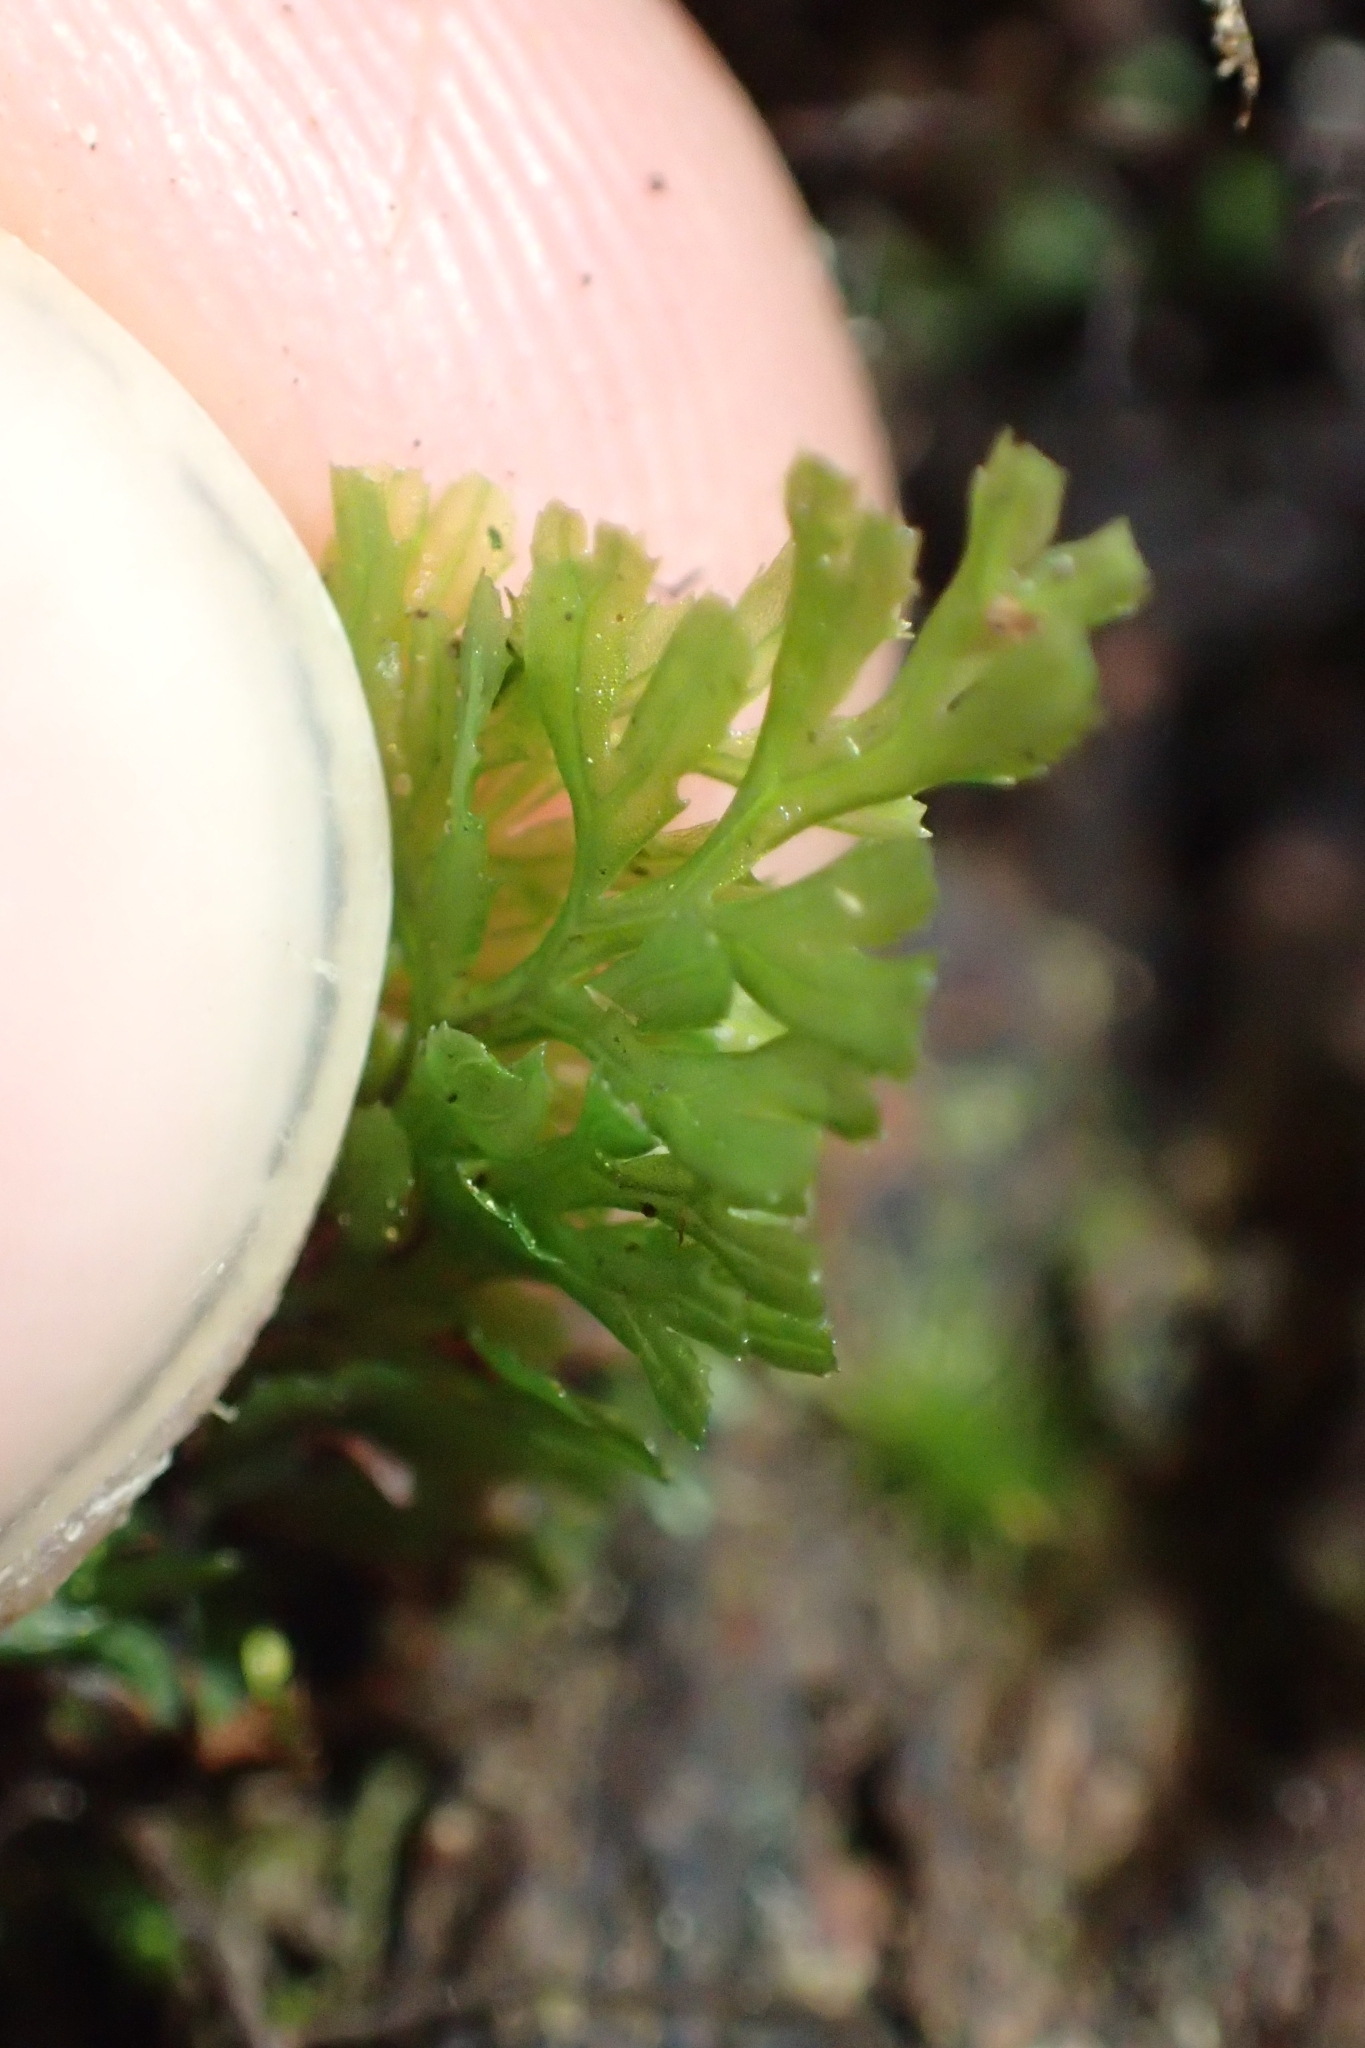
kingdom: Plantae
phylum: Tracheophyta
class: Polypodiopsida
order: Hymenophyllales
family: Hymenophyllaceae
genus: Hymenophyllum
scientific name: Hymenophyllum revolutum
